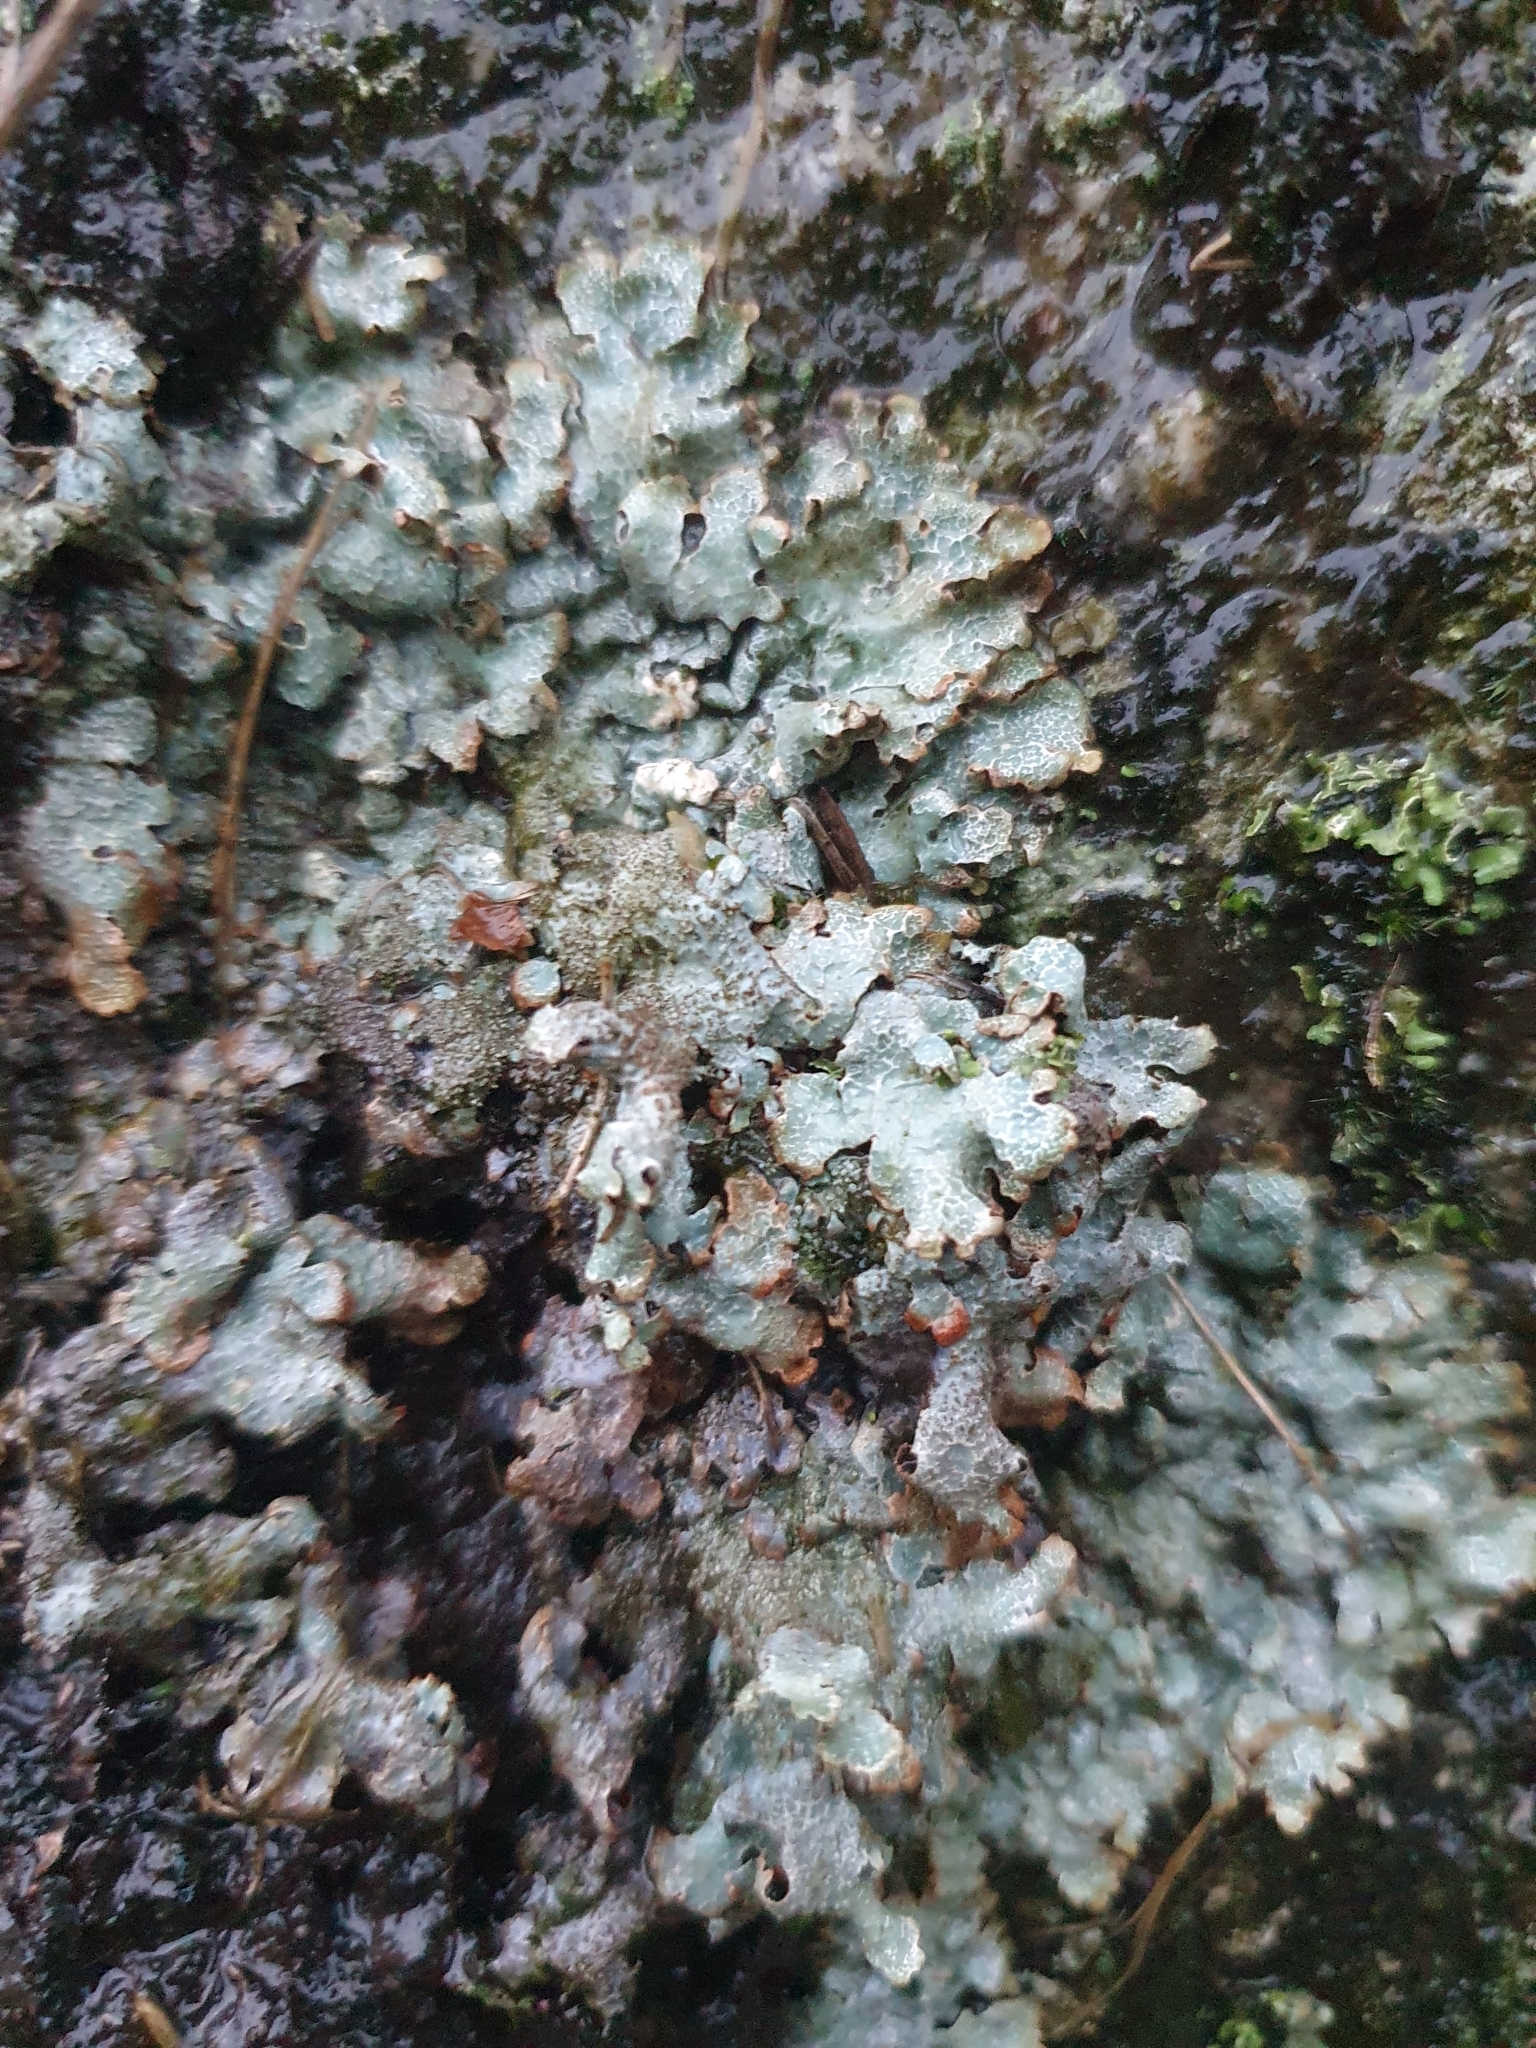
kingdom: Fungi
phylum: Ascomycota
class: Lecanoromycetes
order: Lecanorales
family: Parmeliaceae
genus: Parmelia
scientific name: Parmelia saxatilis
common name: Salted shield lichen
